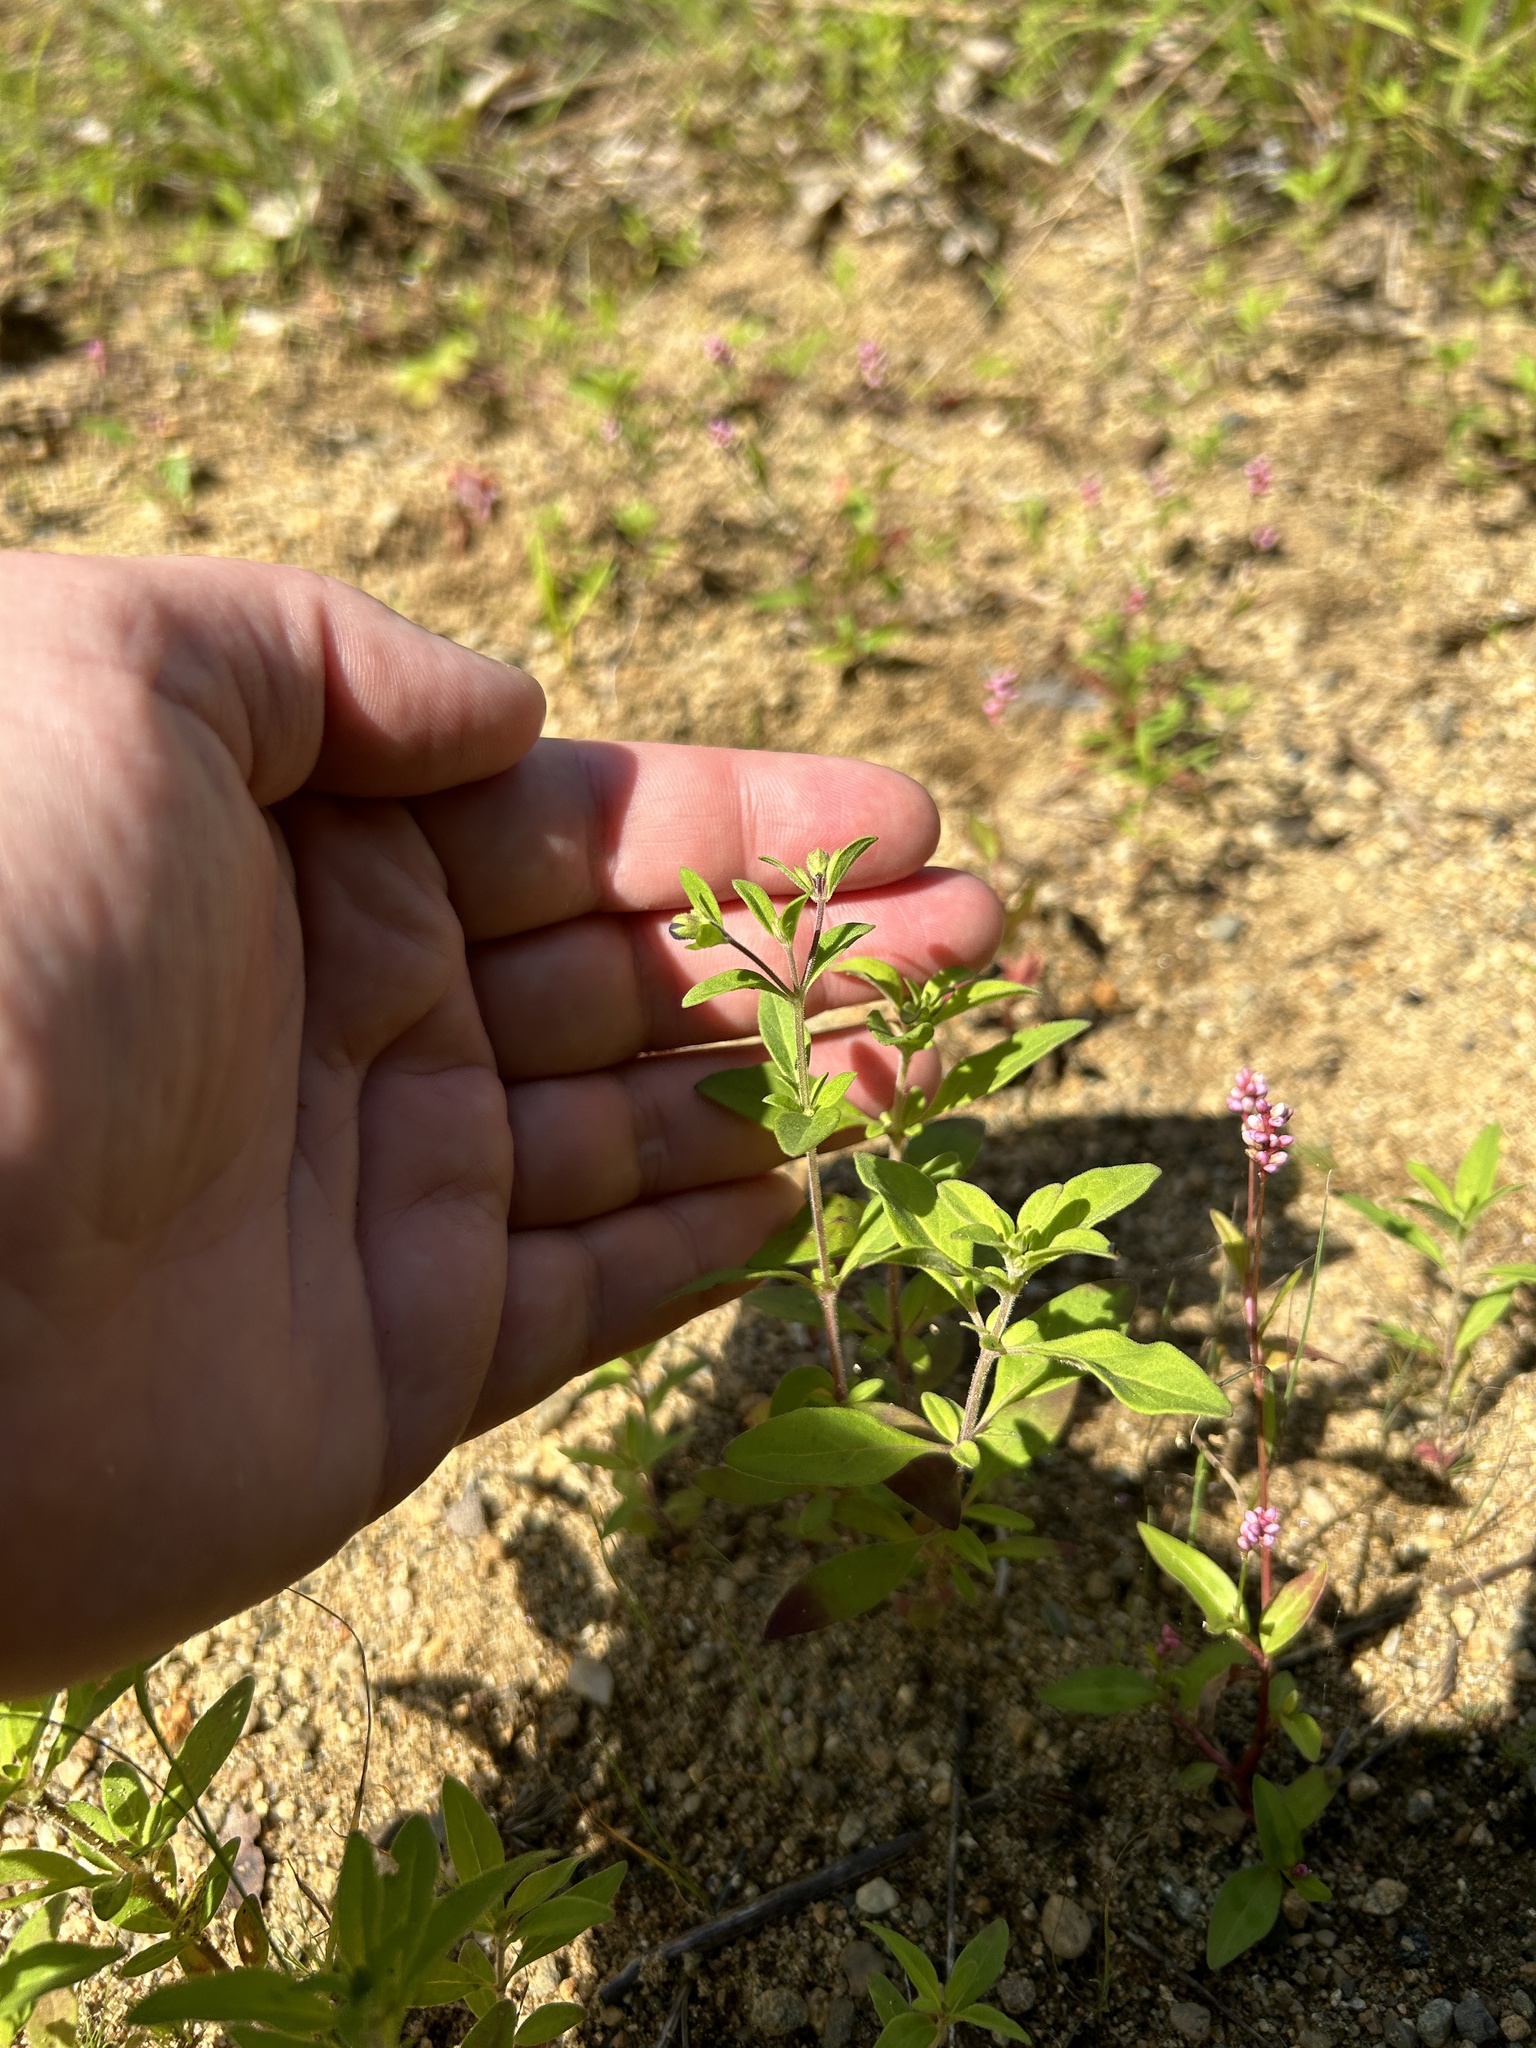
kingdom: Plantae
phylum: Tracheophyta
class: Magnoliopsida
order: Lamiales
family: Lamiaceae
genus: Trichostema
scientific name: Trichostema dichotomum
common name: Bastard pennyroyal
